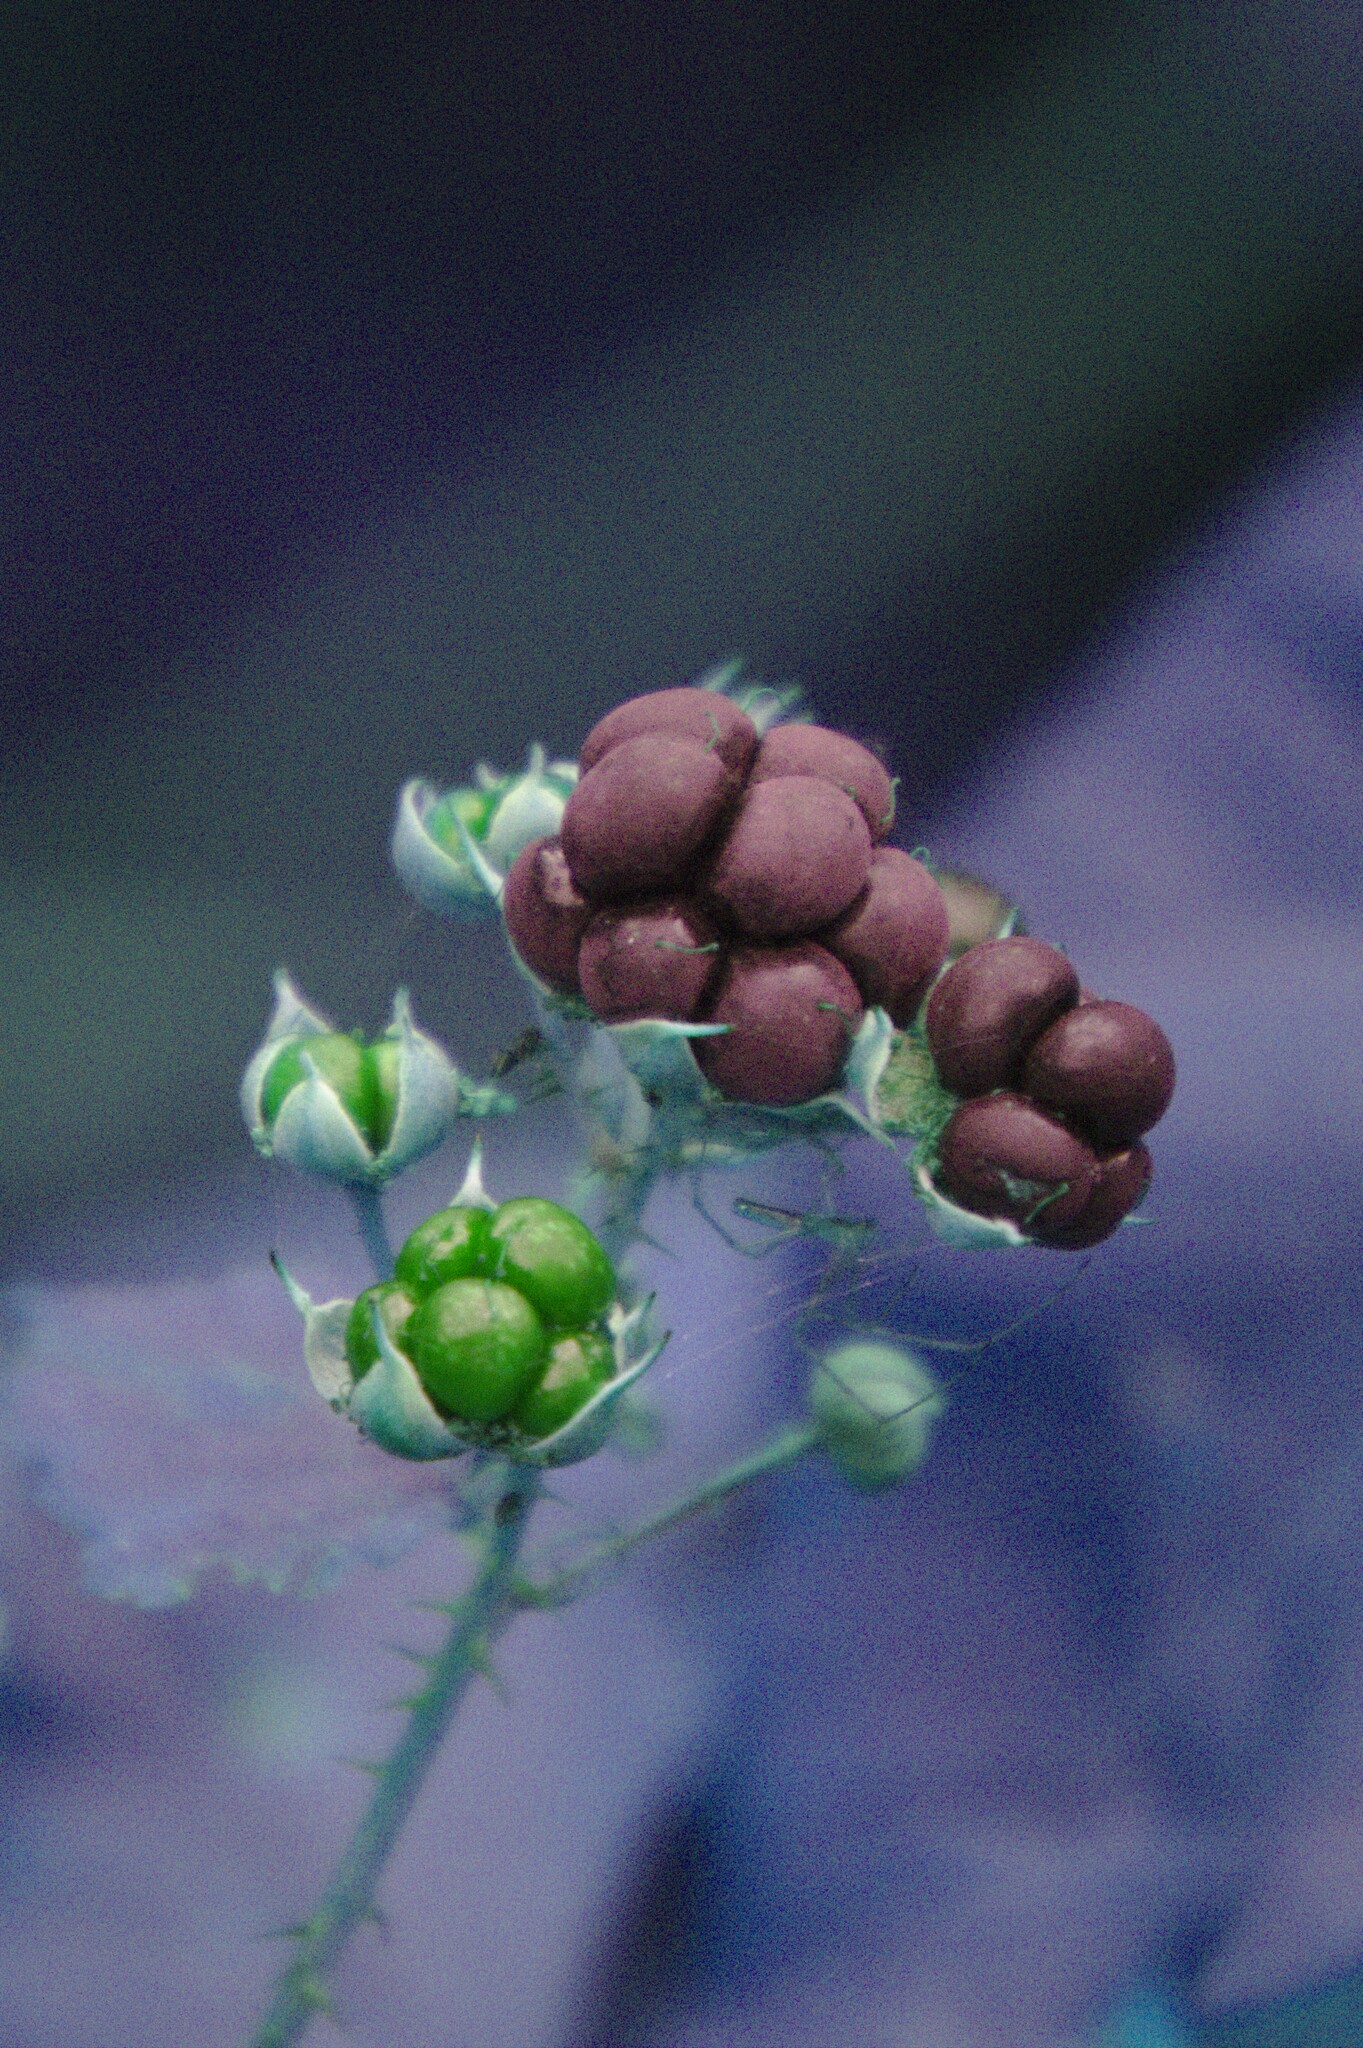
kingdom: Plantae
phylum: Tracheophyta
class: Magnoliopsida
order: Rosales
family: Rosaceae
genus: Rubus
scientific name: Rubus caesius
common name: Dewberry
